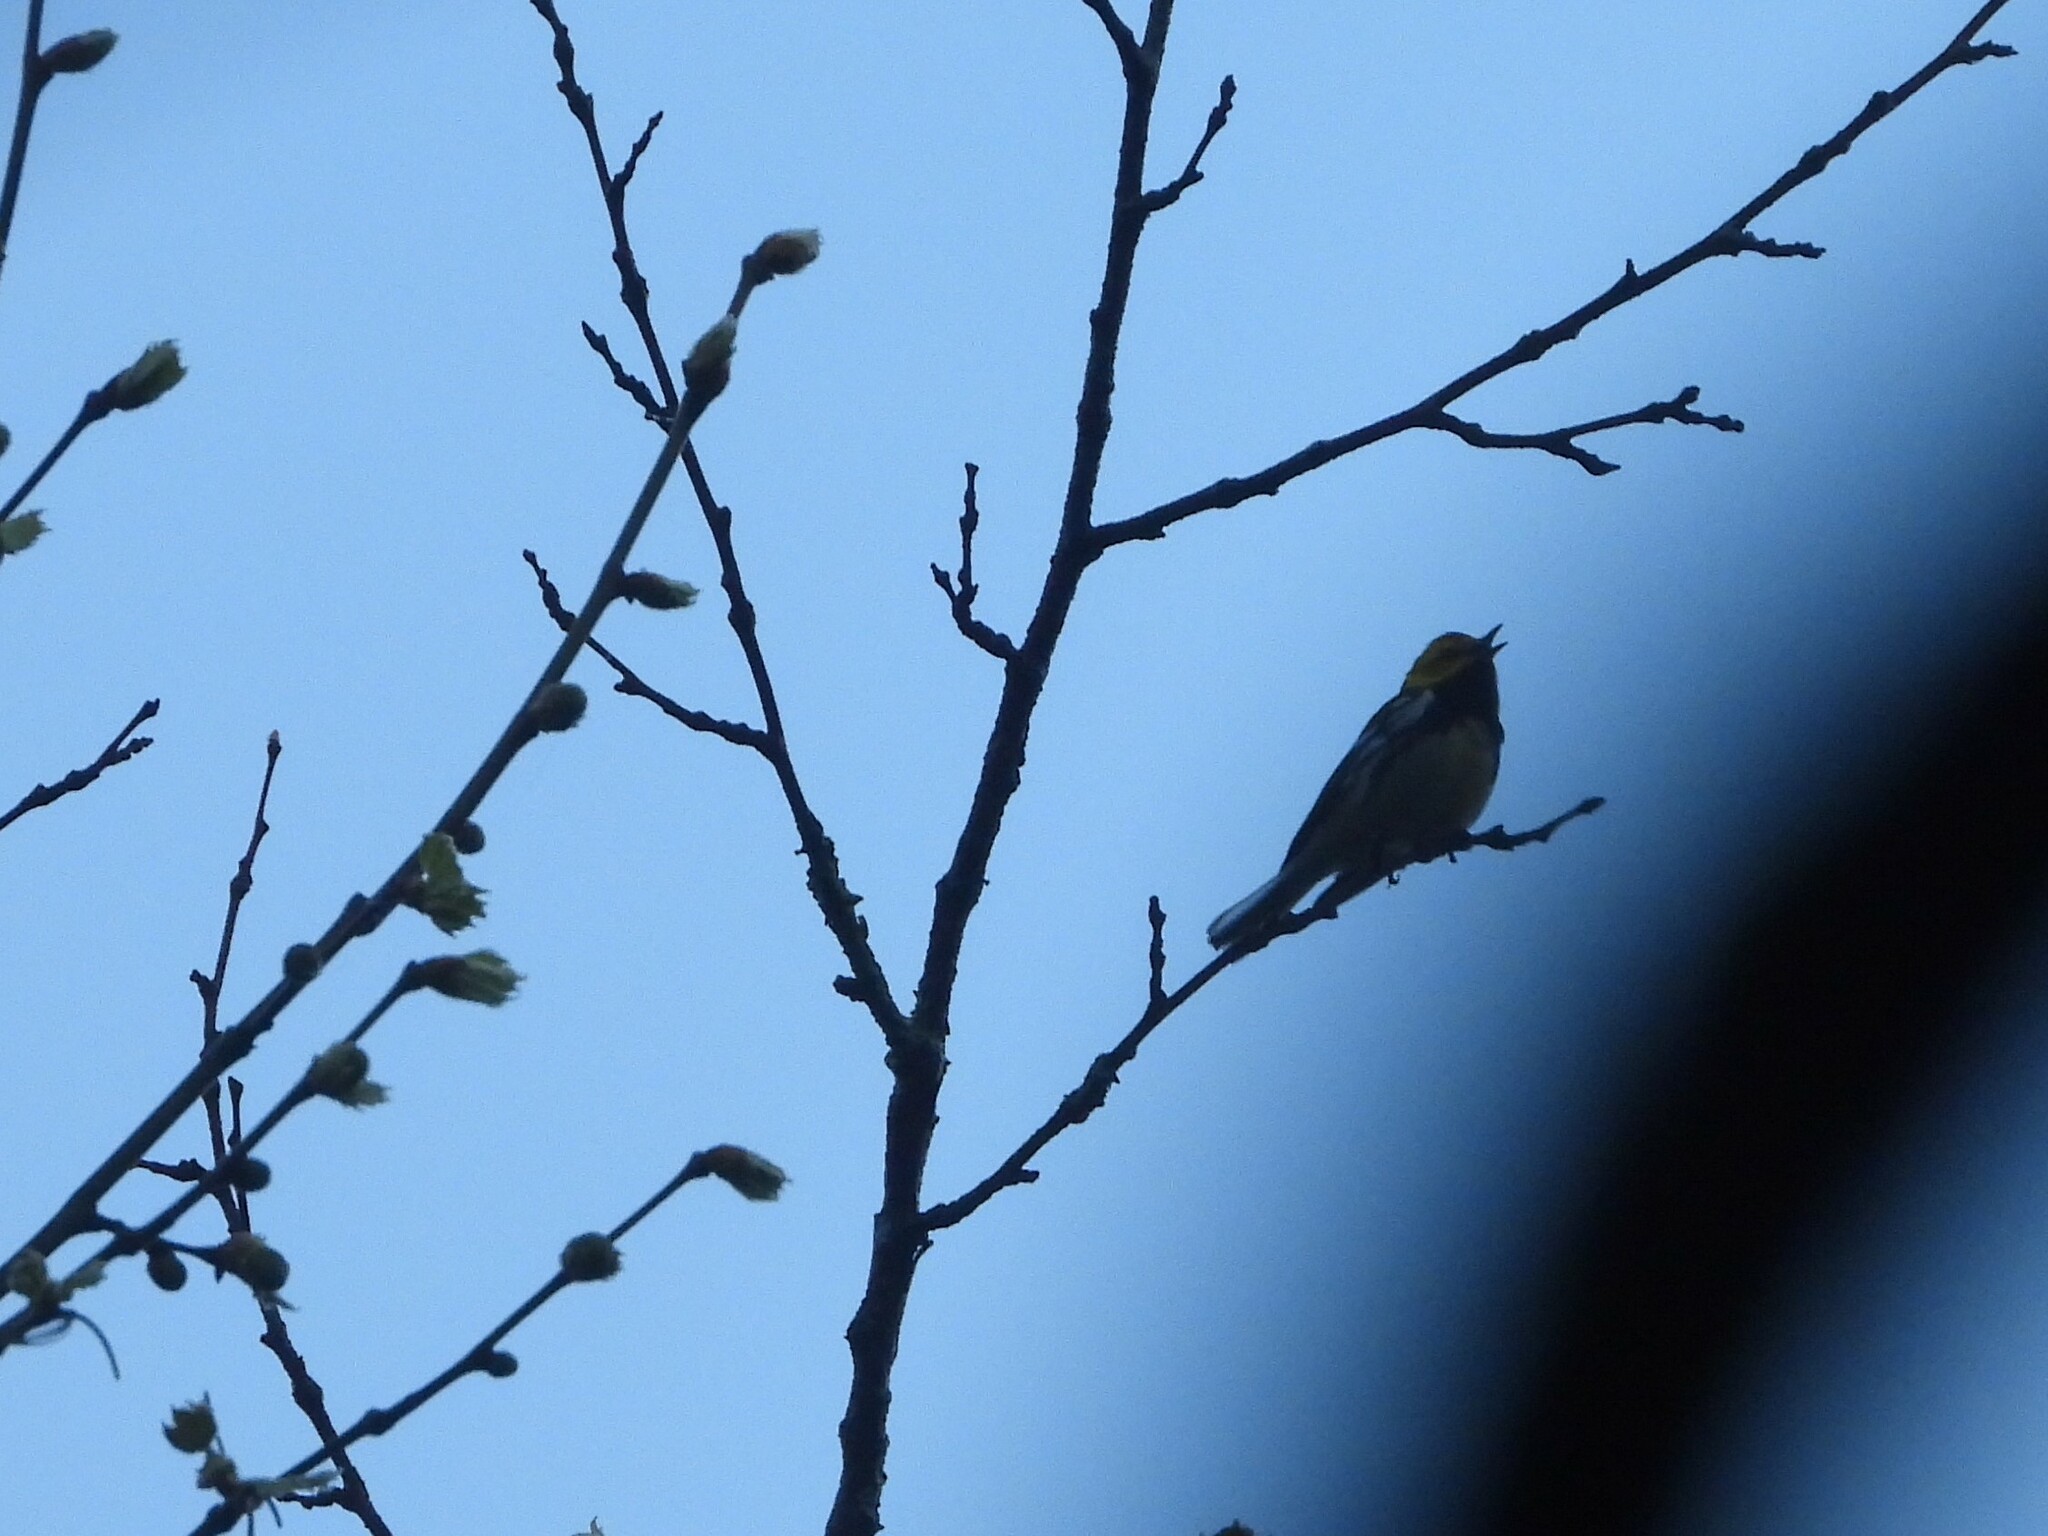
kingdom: Animalia
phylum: Chordata
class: Aves
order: Passeriformes
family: Parulidae
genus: Setophaga
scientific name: Setophaga virens
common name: Black-throated green warbler
